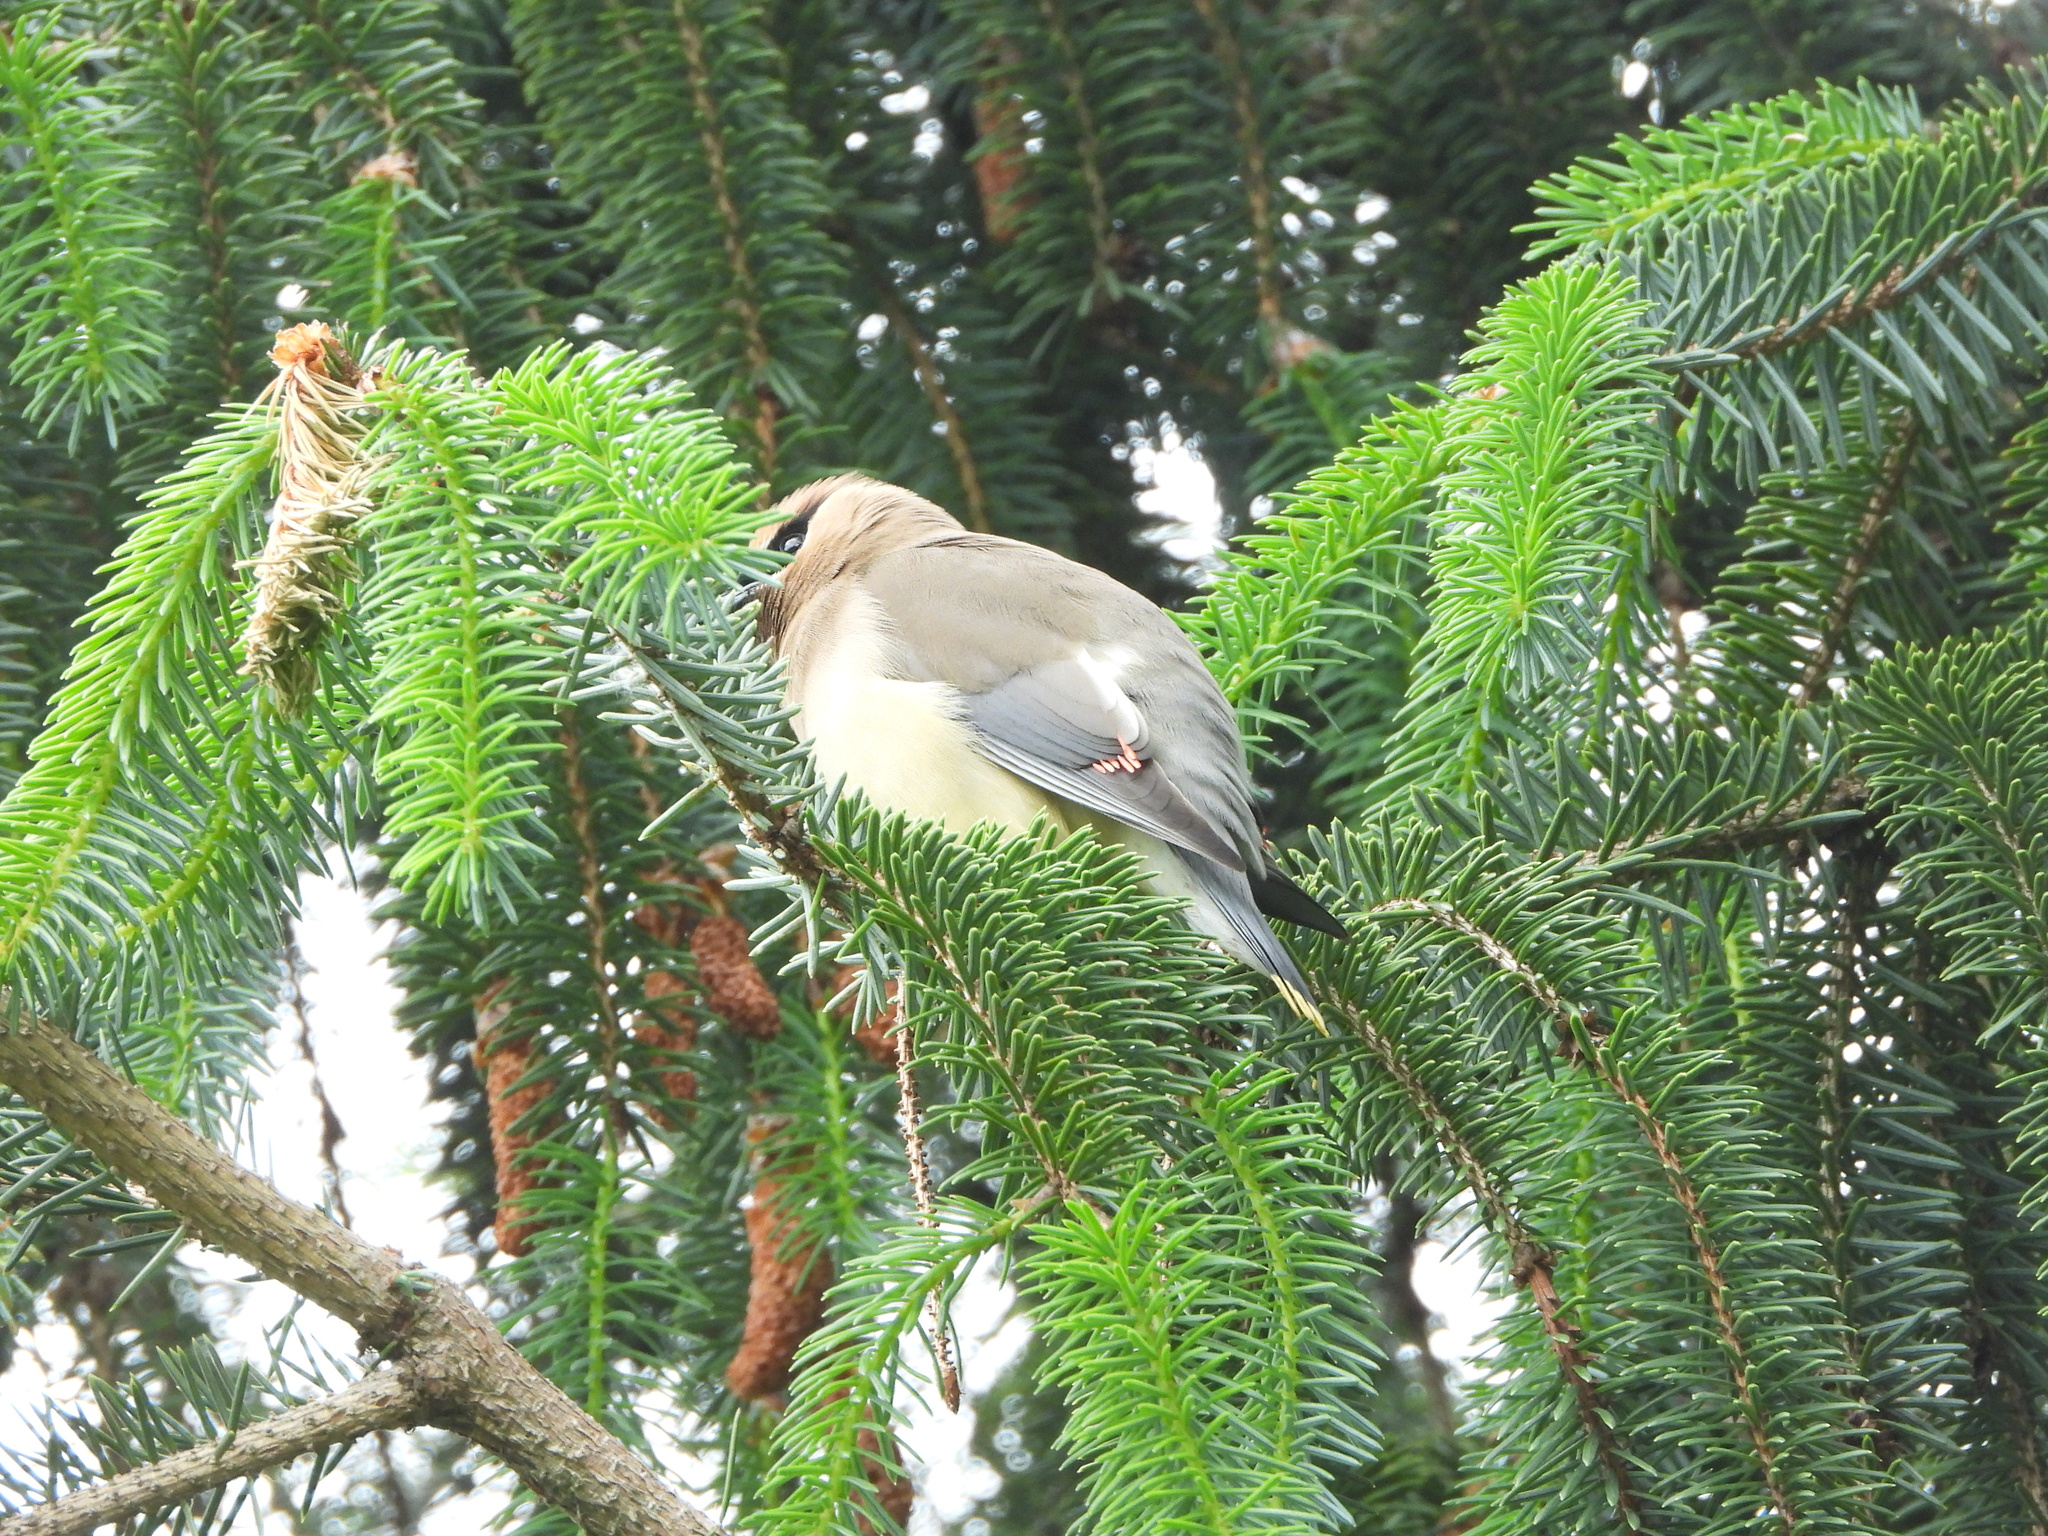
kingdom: Animalia
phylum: Chordata
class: Aves
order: Passeriformes
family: Bombycillidae
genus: Bombycilla
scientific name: Bombycilla cedrorum
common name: Cedar waxwing
